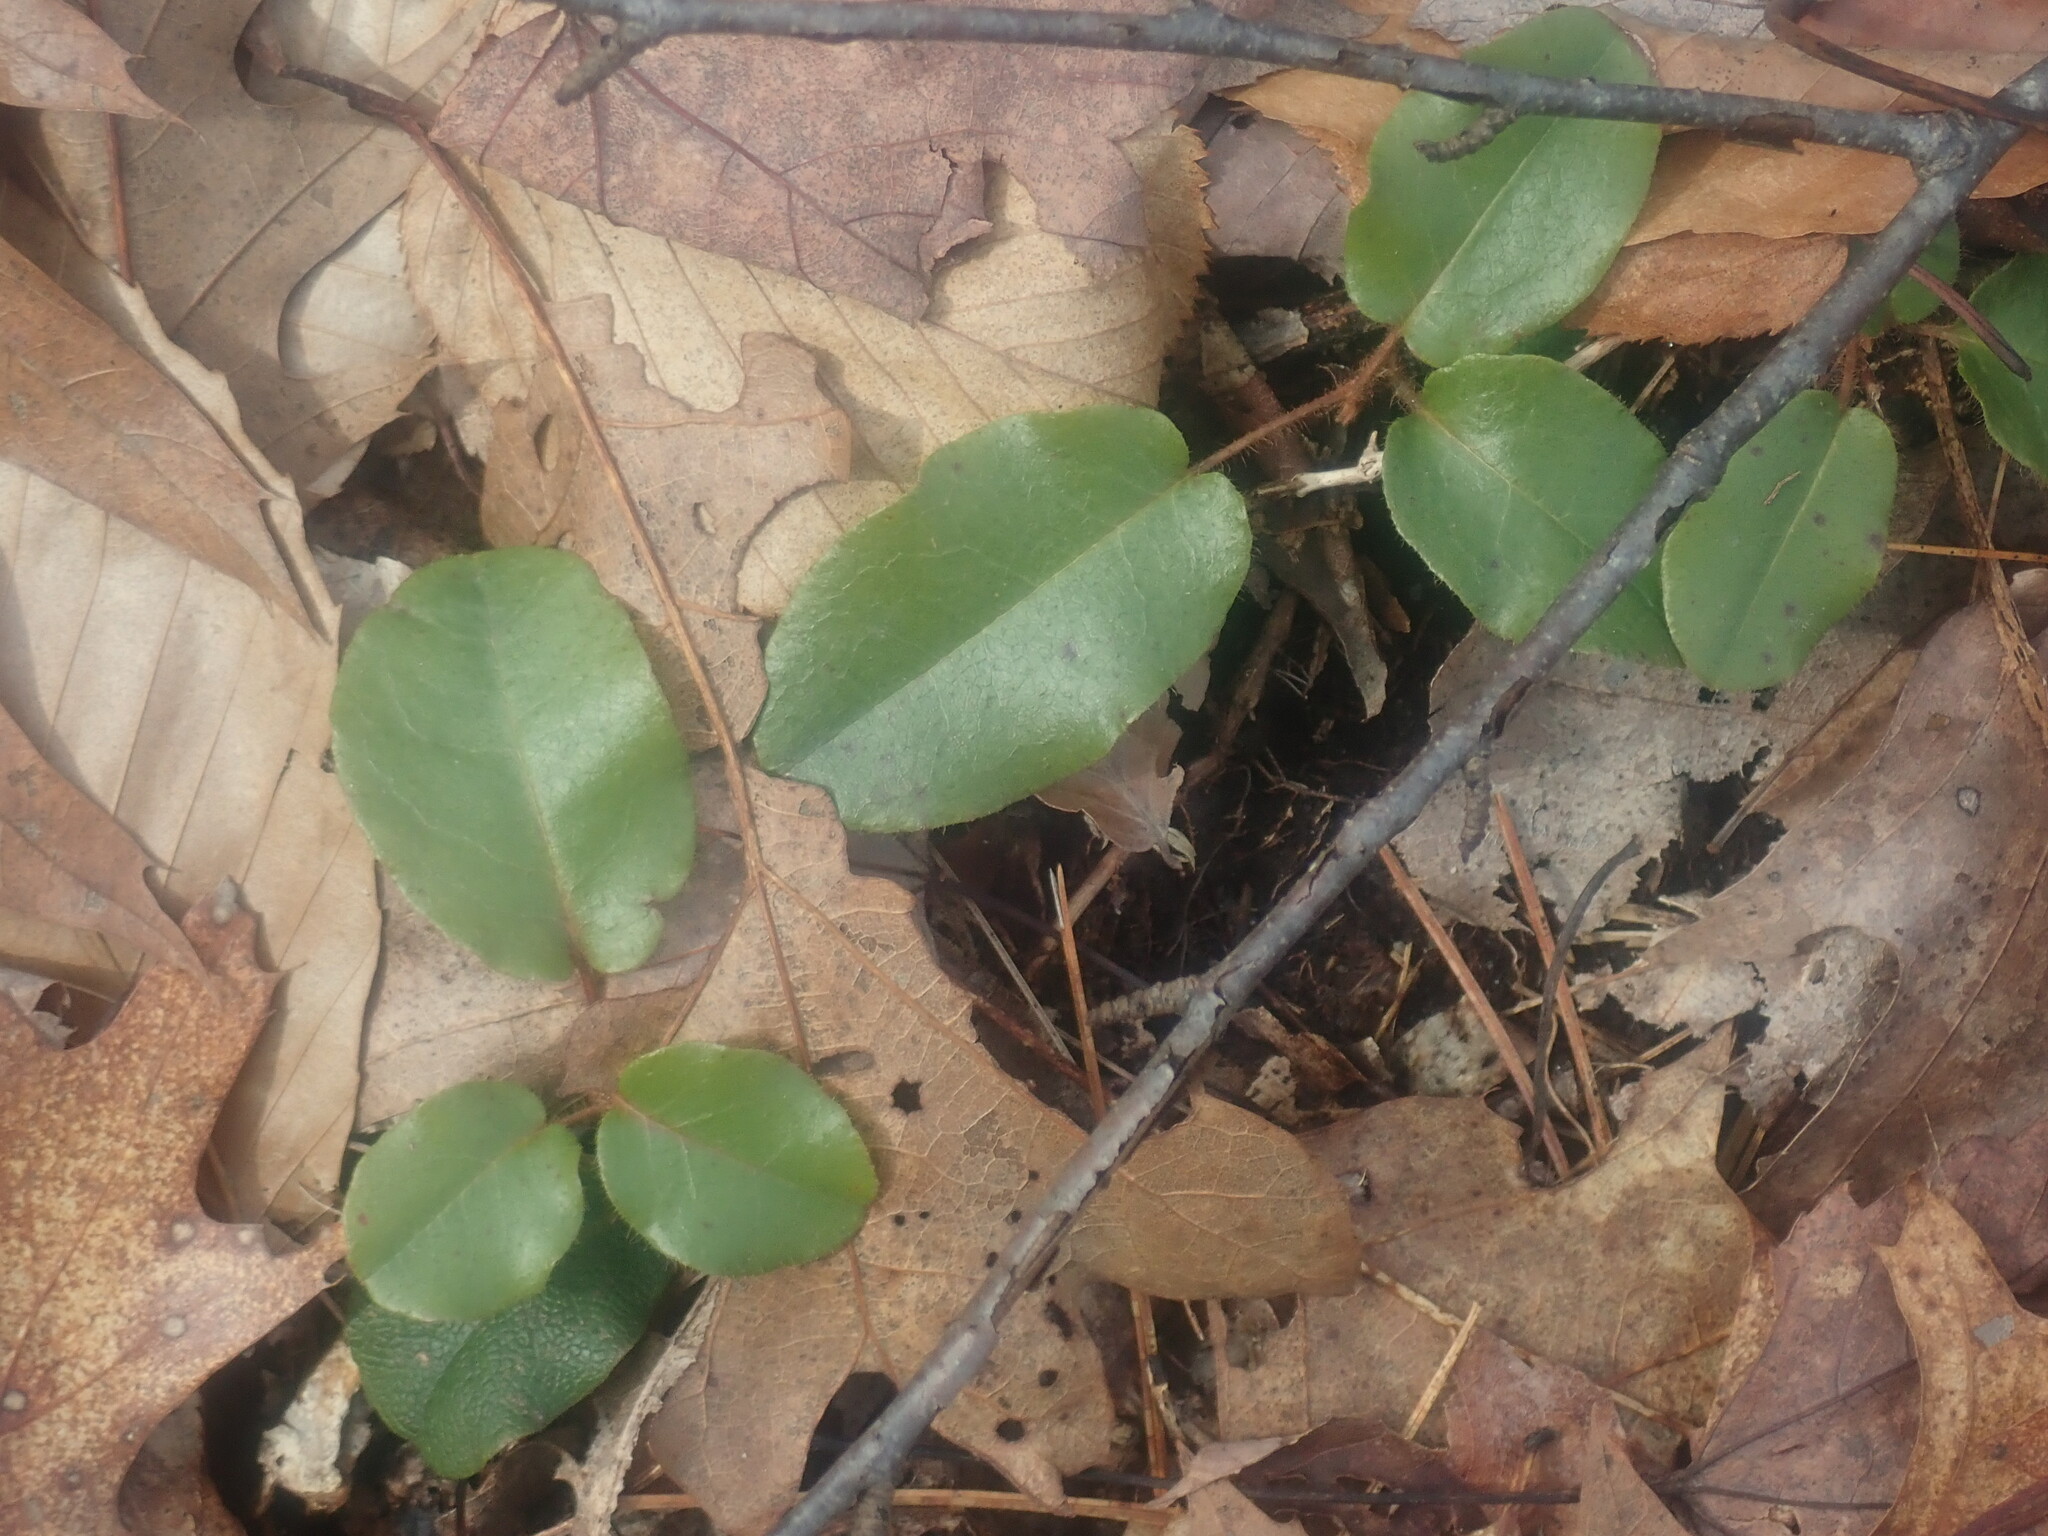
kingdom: Plantae
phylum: Tracheophyta
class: Magnoliopsida
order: Ericales
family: Ericaceae
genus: Epigaea
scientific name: Epigaea repens
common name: Gravelroot
